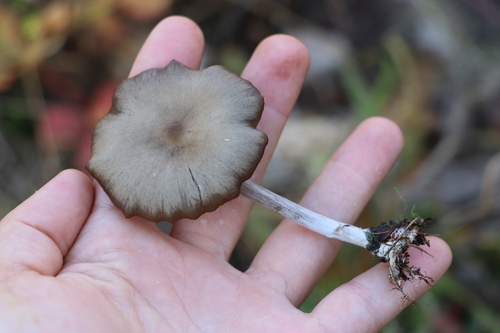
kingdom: Fungi
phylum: Basidiomycota
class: Agaricomycetes
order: Agaricales
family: Entolomataceae
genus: Entoloma
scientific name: Entoloma
